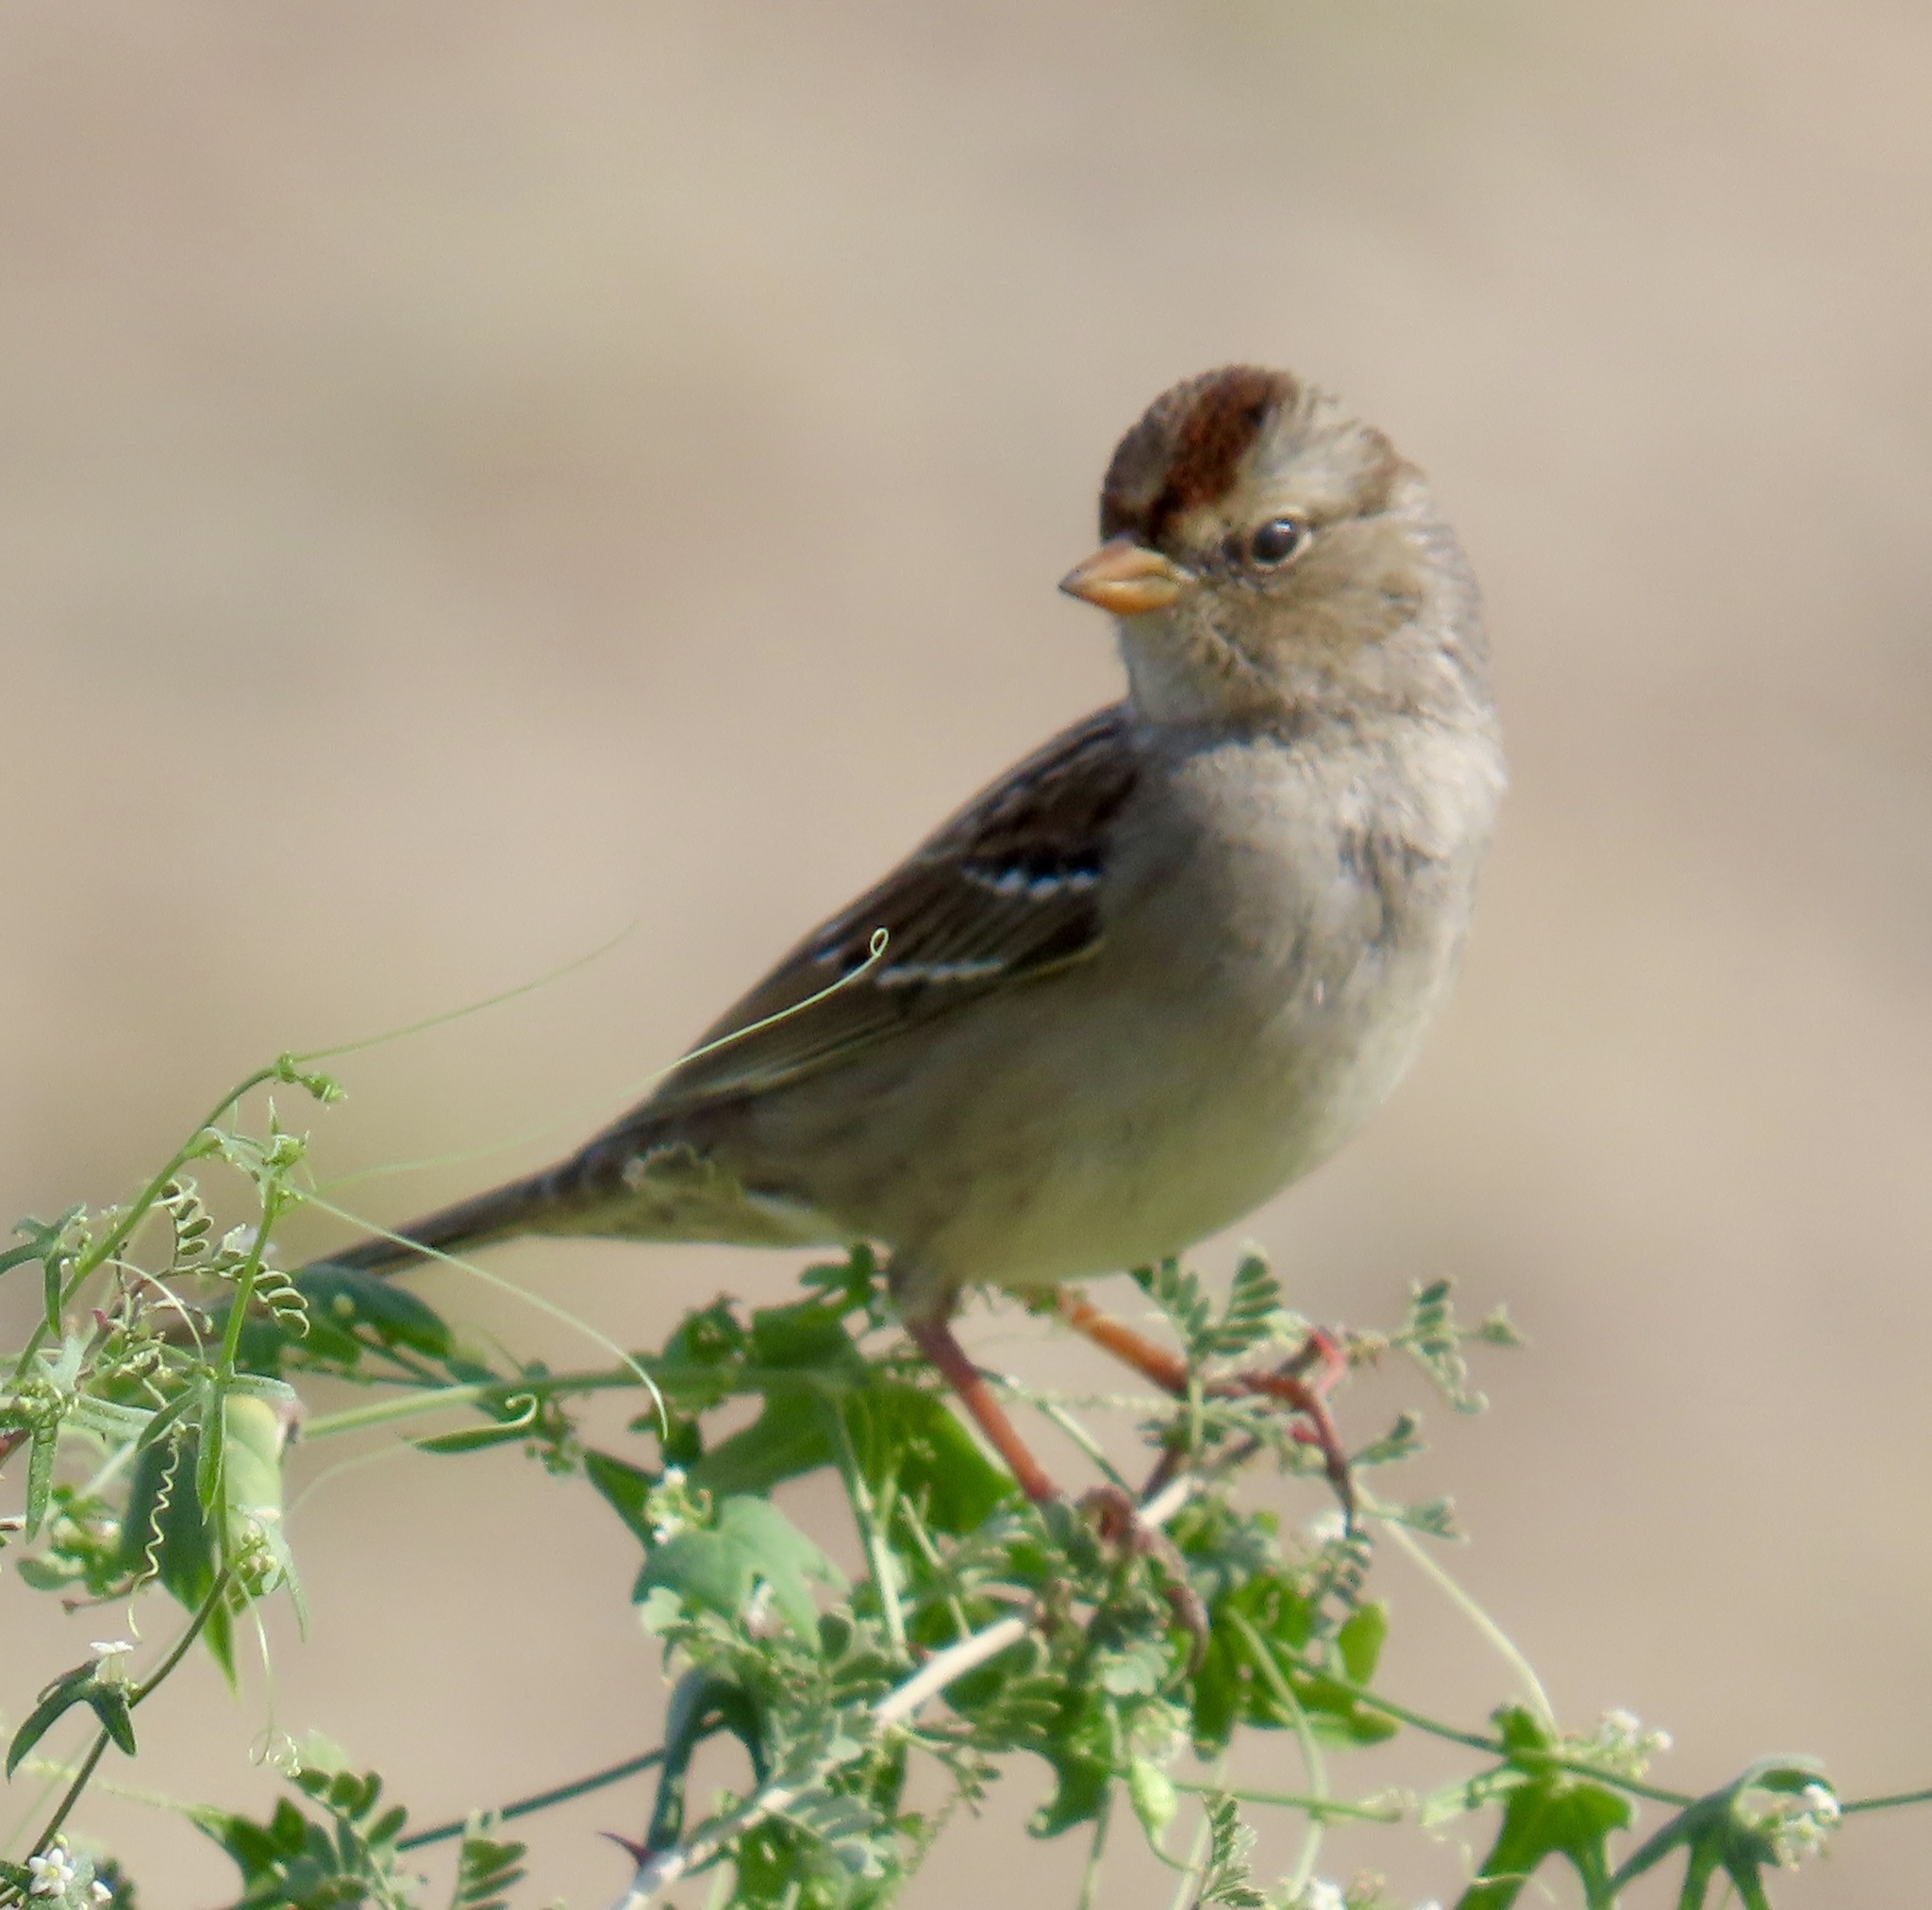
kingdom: Animalia
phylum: Chordata
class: Aves
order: Passeriformes
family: Passerellidae
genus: Zonotrichia
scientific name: Zonotrichia leucophrys
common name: White-crowned sparrow
